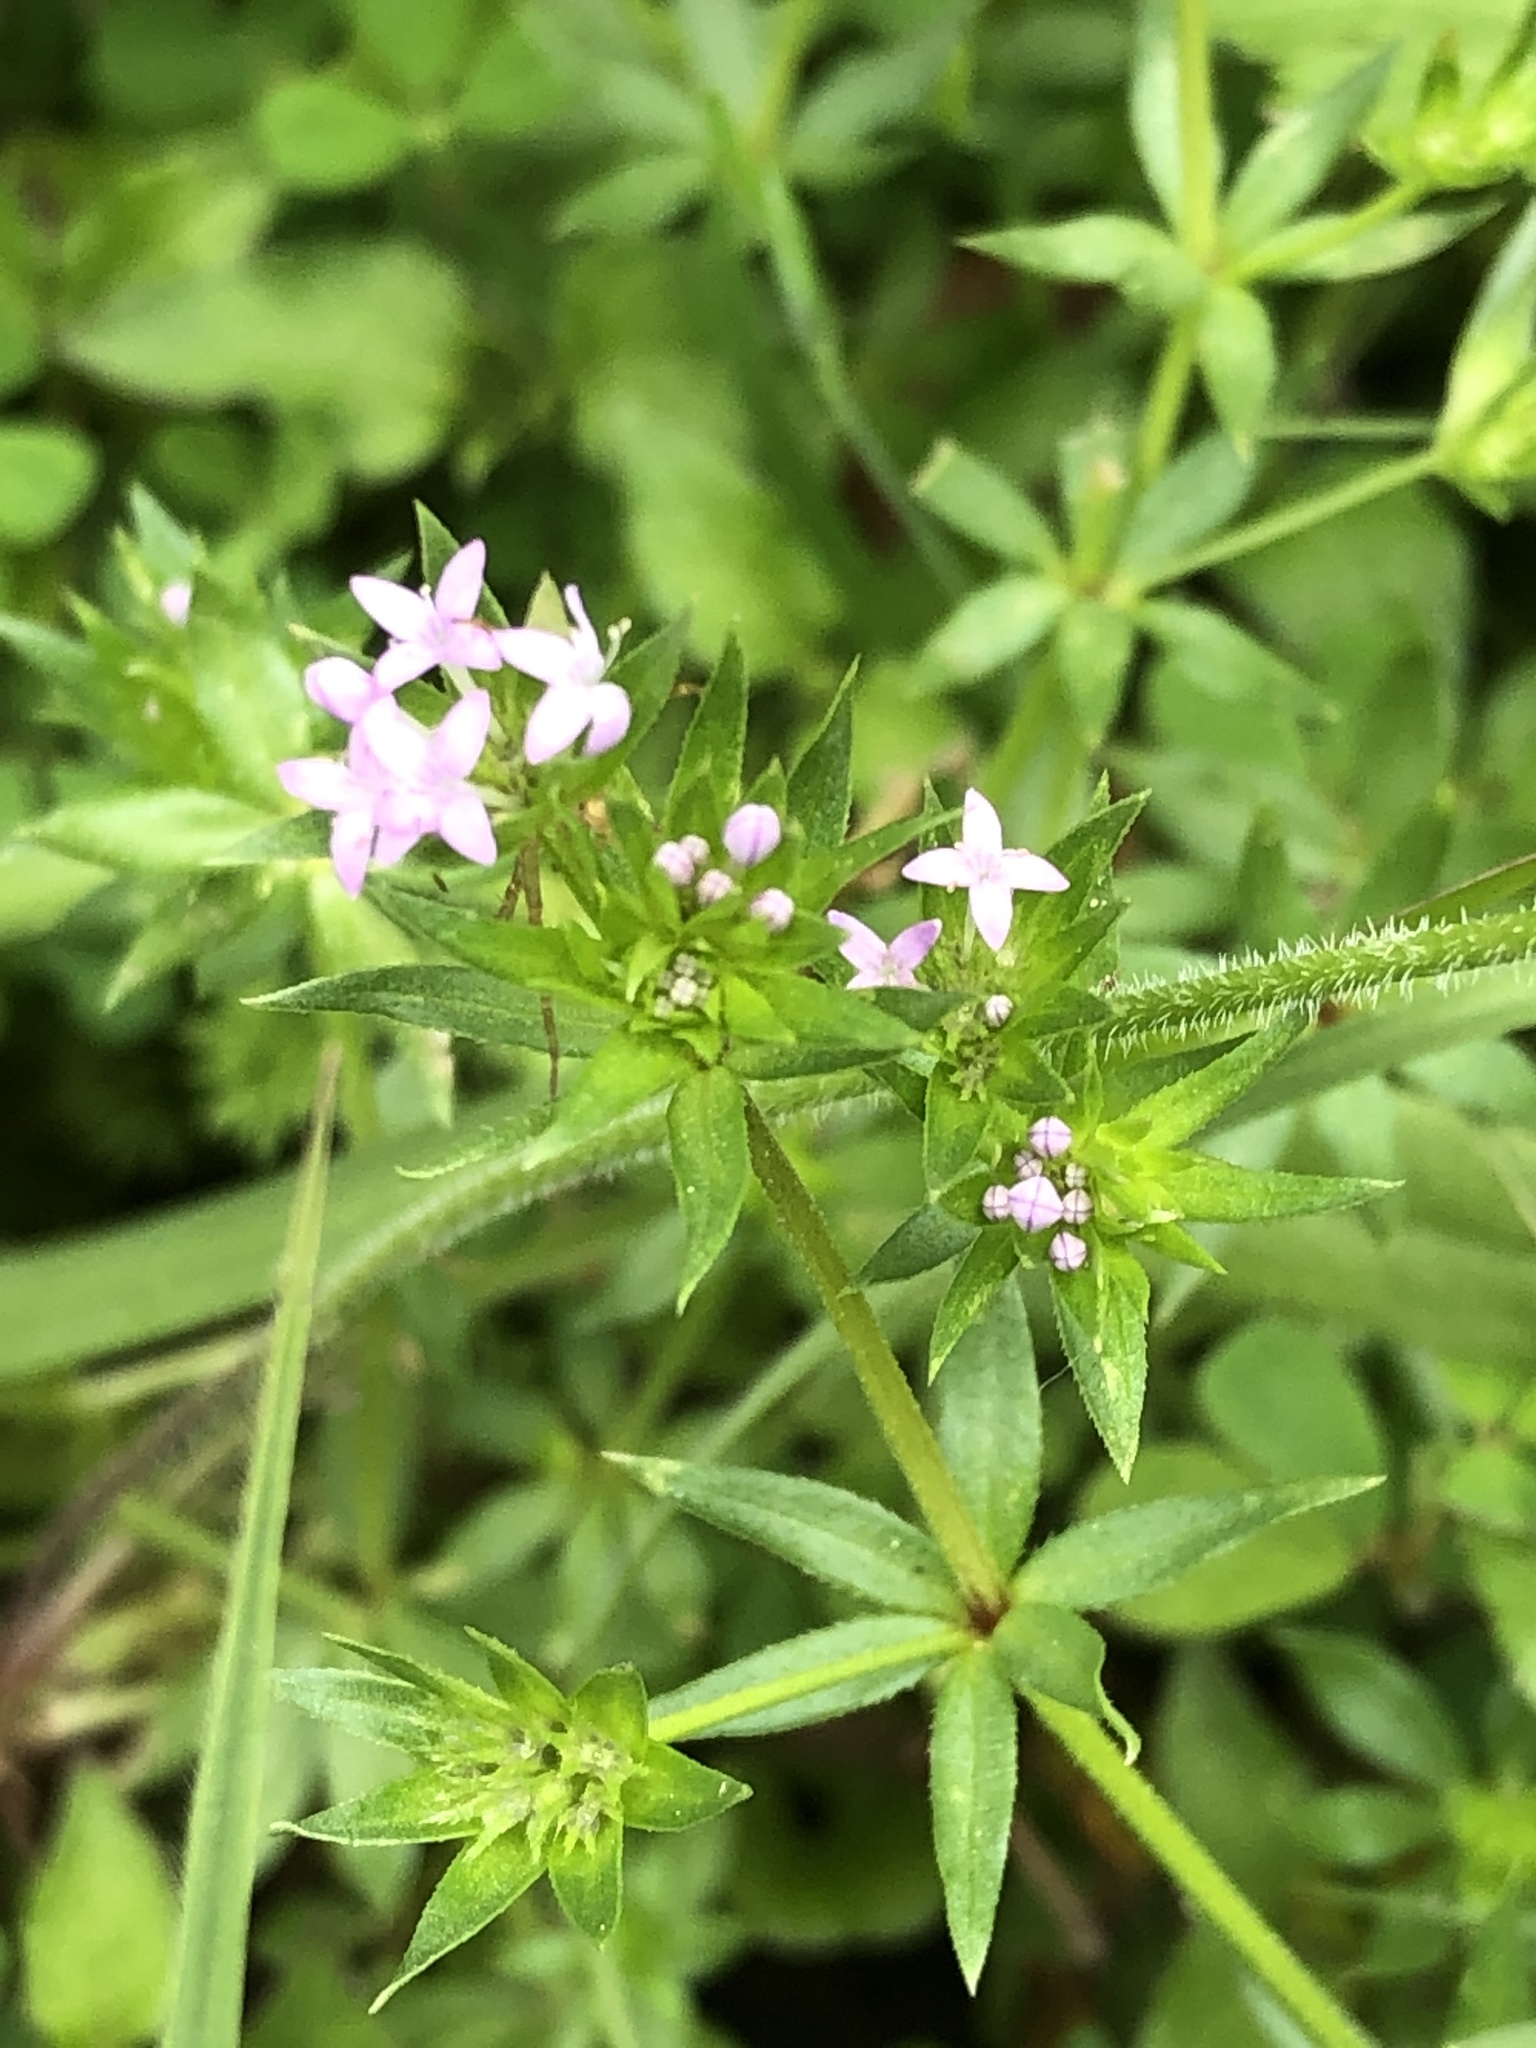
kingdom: Plantae
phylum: Tracheophyta
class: Magnoliopsida
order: Gentianales
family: Rubiaceae
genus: Sherardia
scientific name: Sherardia arvensis
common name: Field madder
